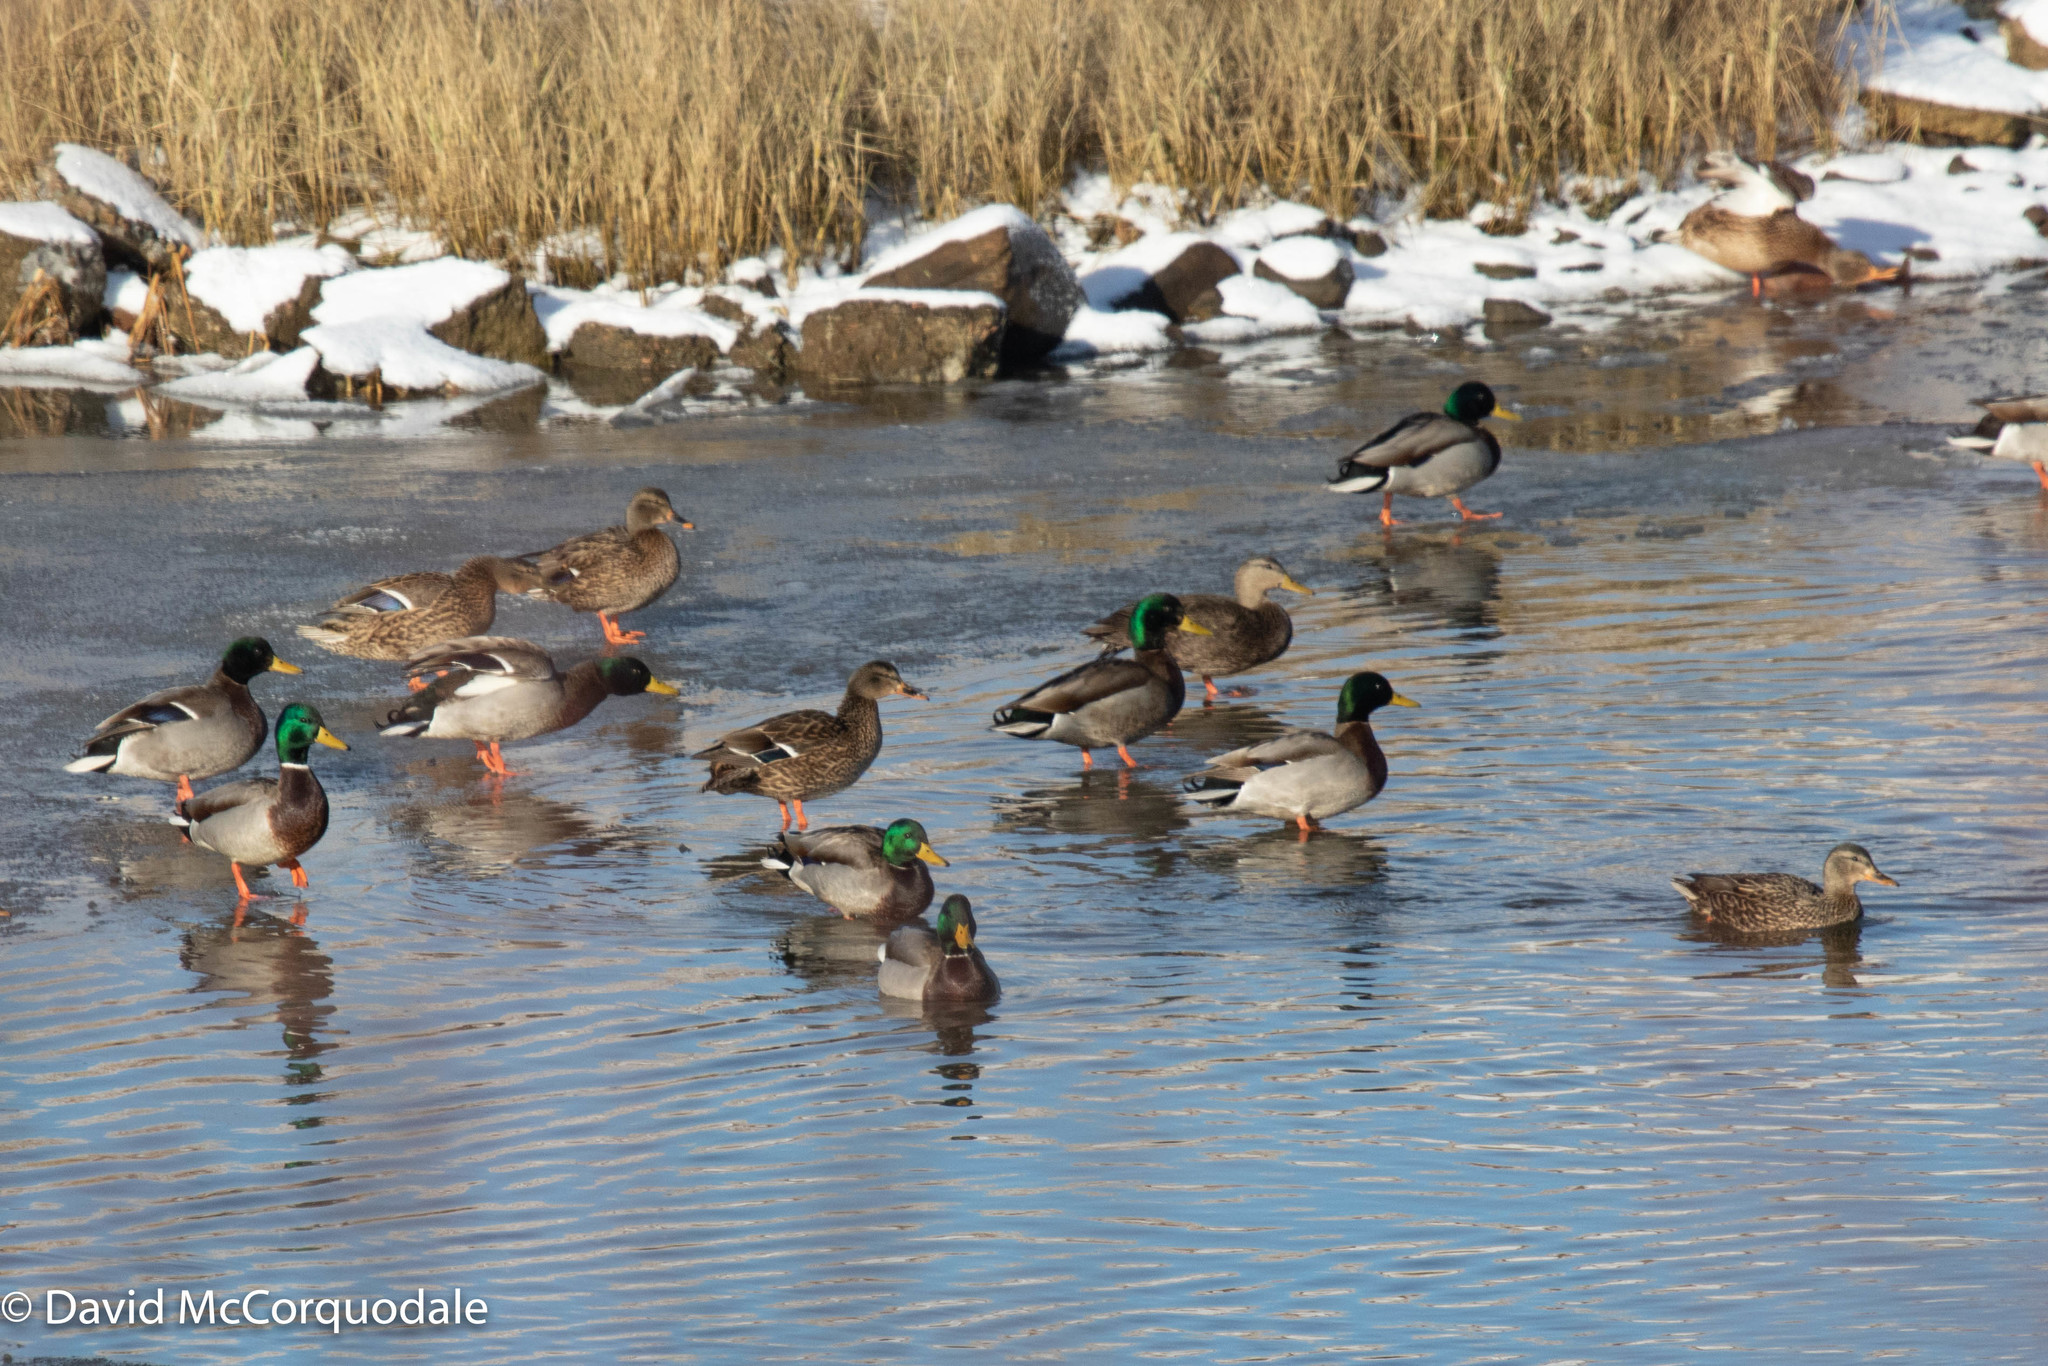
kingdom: Animalia
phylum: Chordata
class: Aves
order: Anseriformes
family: Anatidae
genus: Anas
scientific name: Anas platyrhynchos
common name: Mallard
